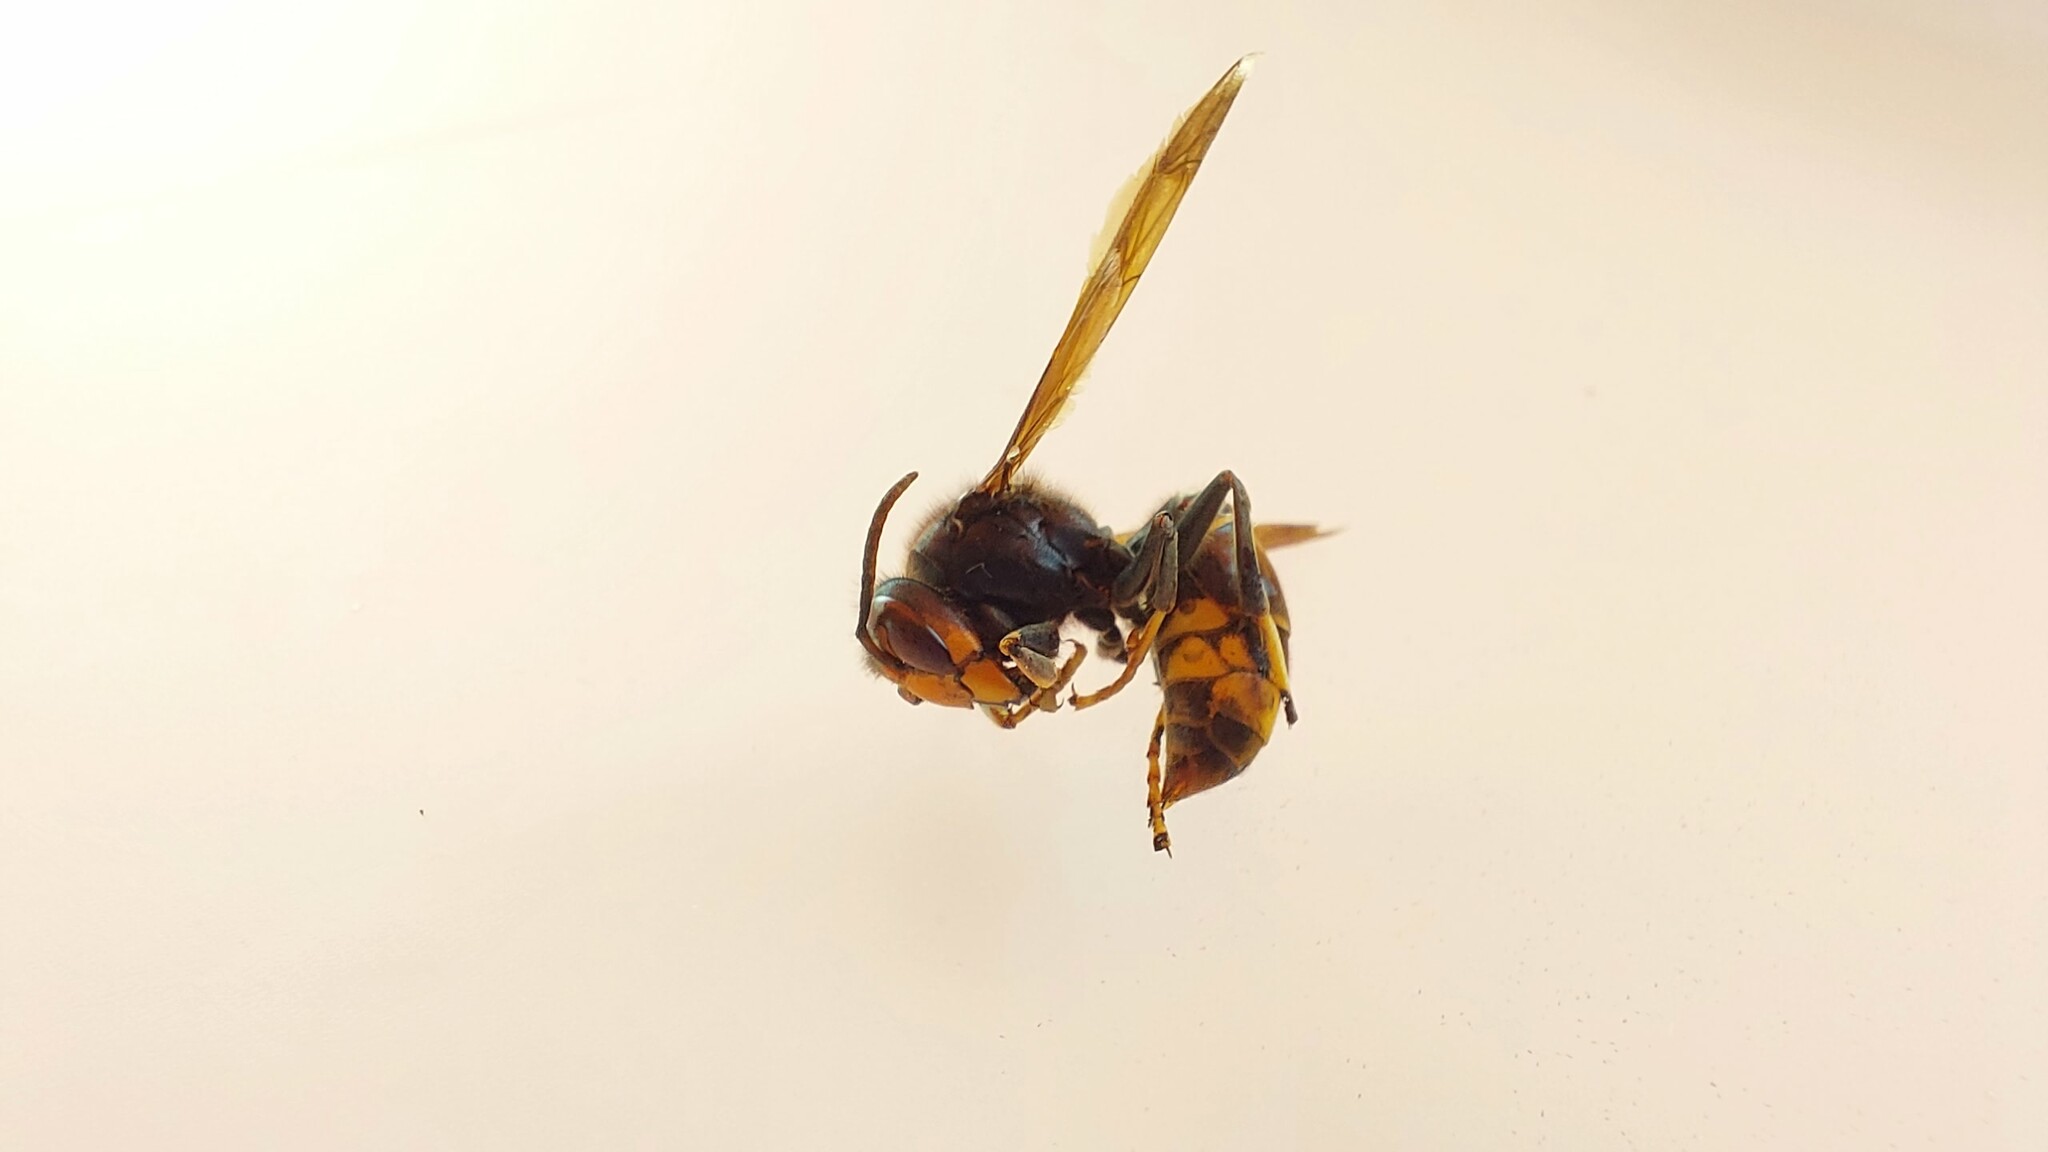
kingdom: Animalia
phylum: Arthropoda
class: Insecta
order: Hymenoptera
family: Vespidae
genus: Vespa
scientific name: Vespa velutina
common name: Asian hornet
